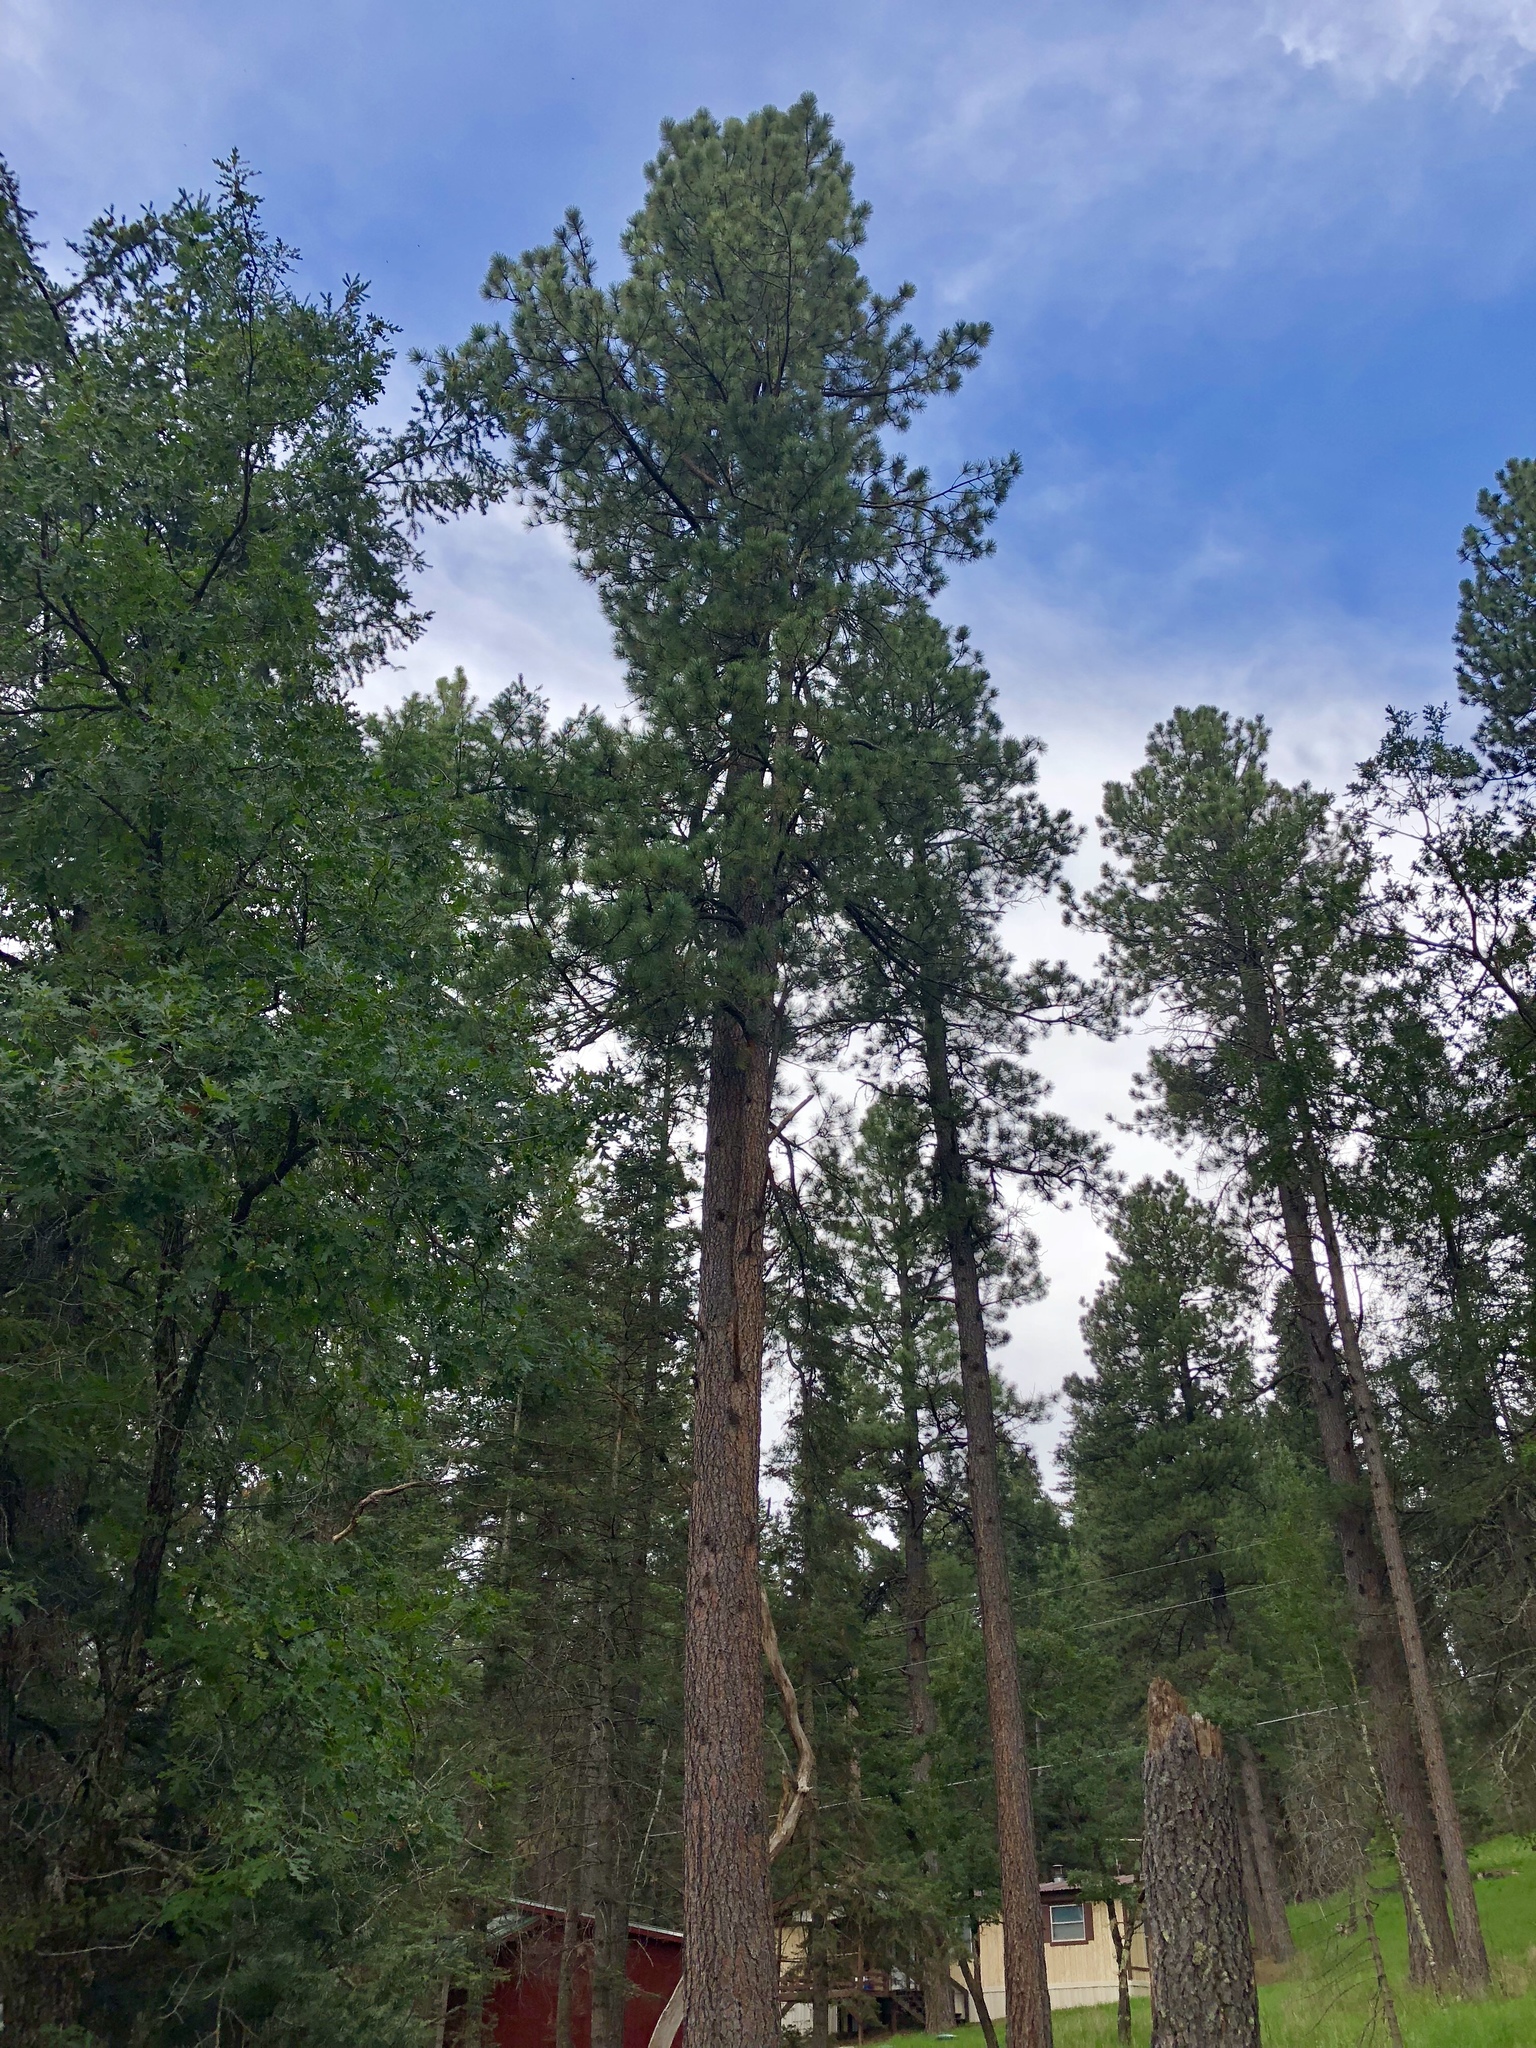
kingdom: Plantae
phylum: Tracheophyta
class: Pinopsida
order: Pinales
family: Pinaceae
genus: Pinus
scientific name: Pinus ponderosa
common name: Western yellow-pine
